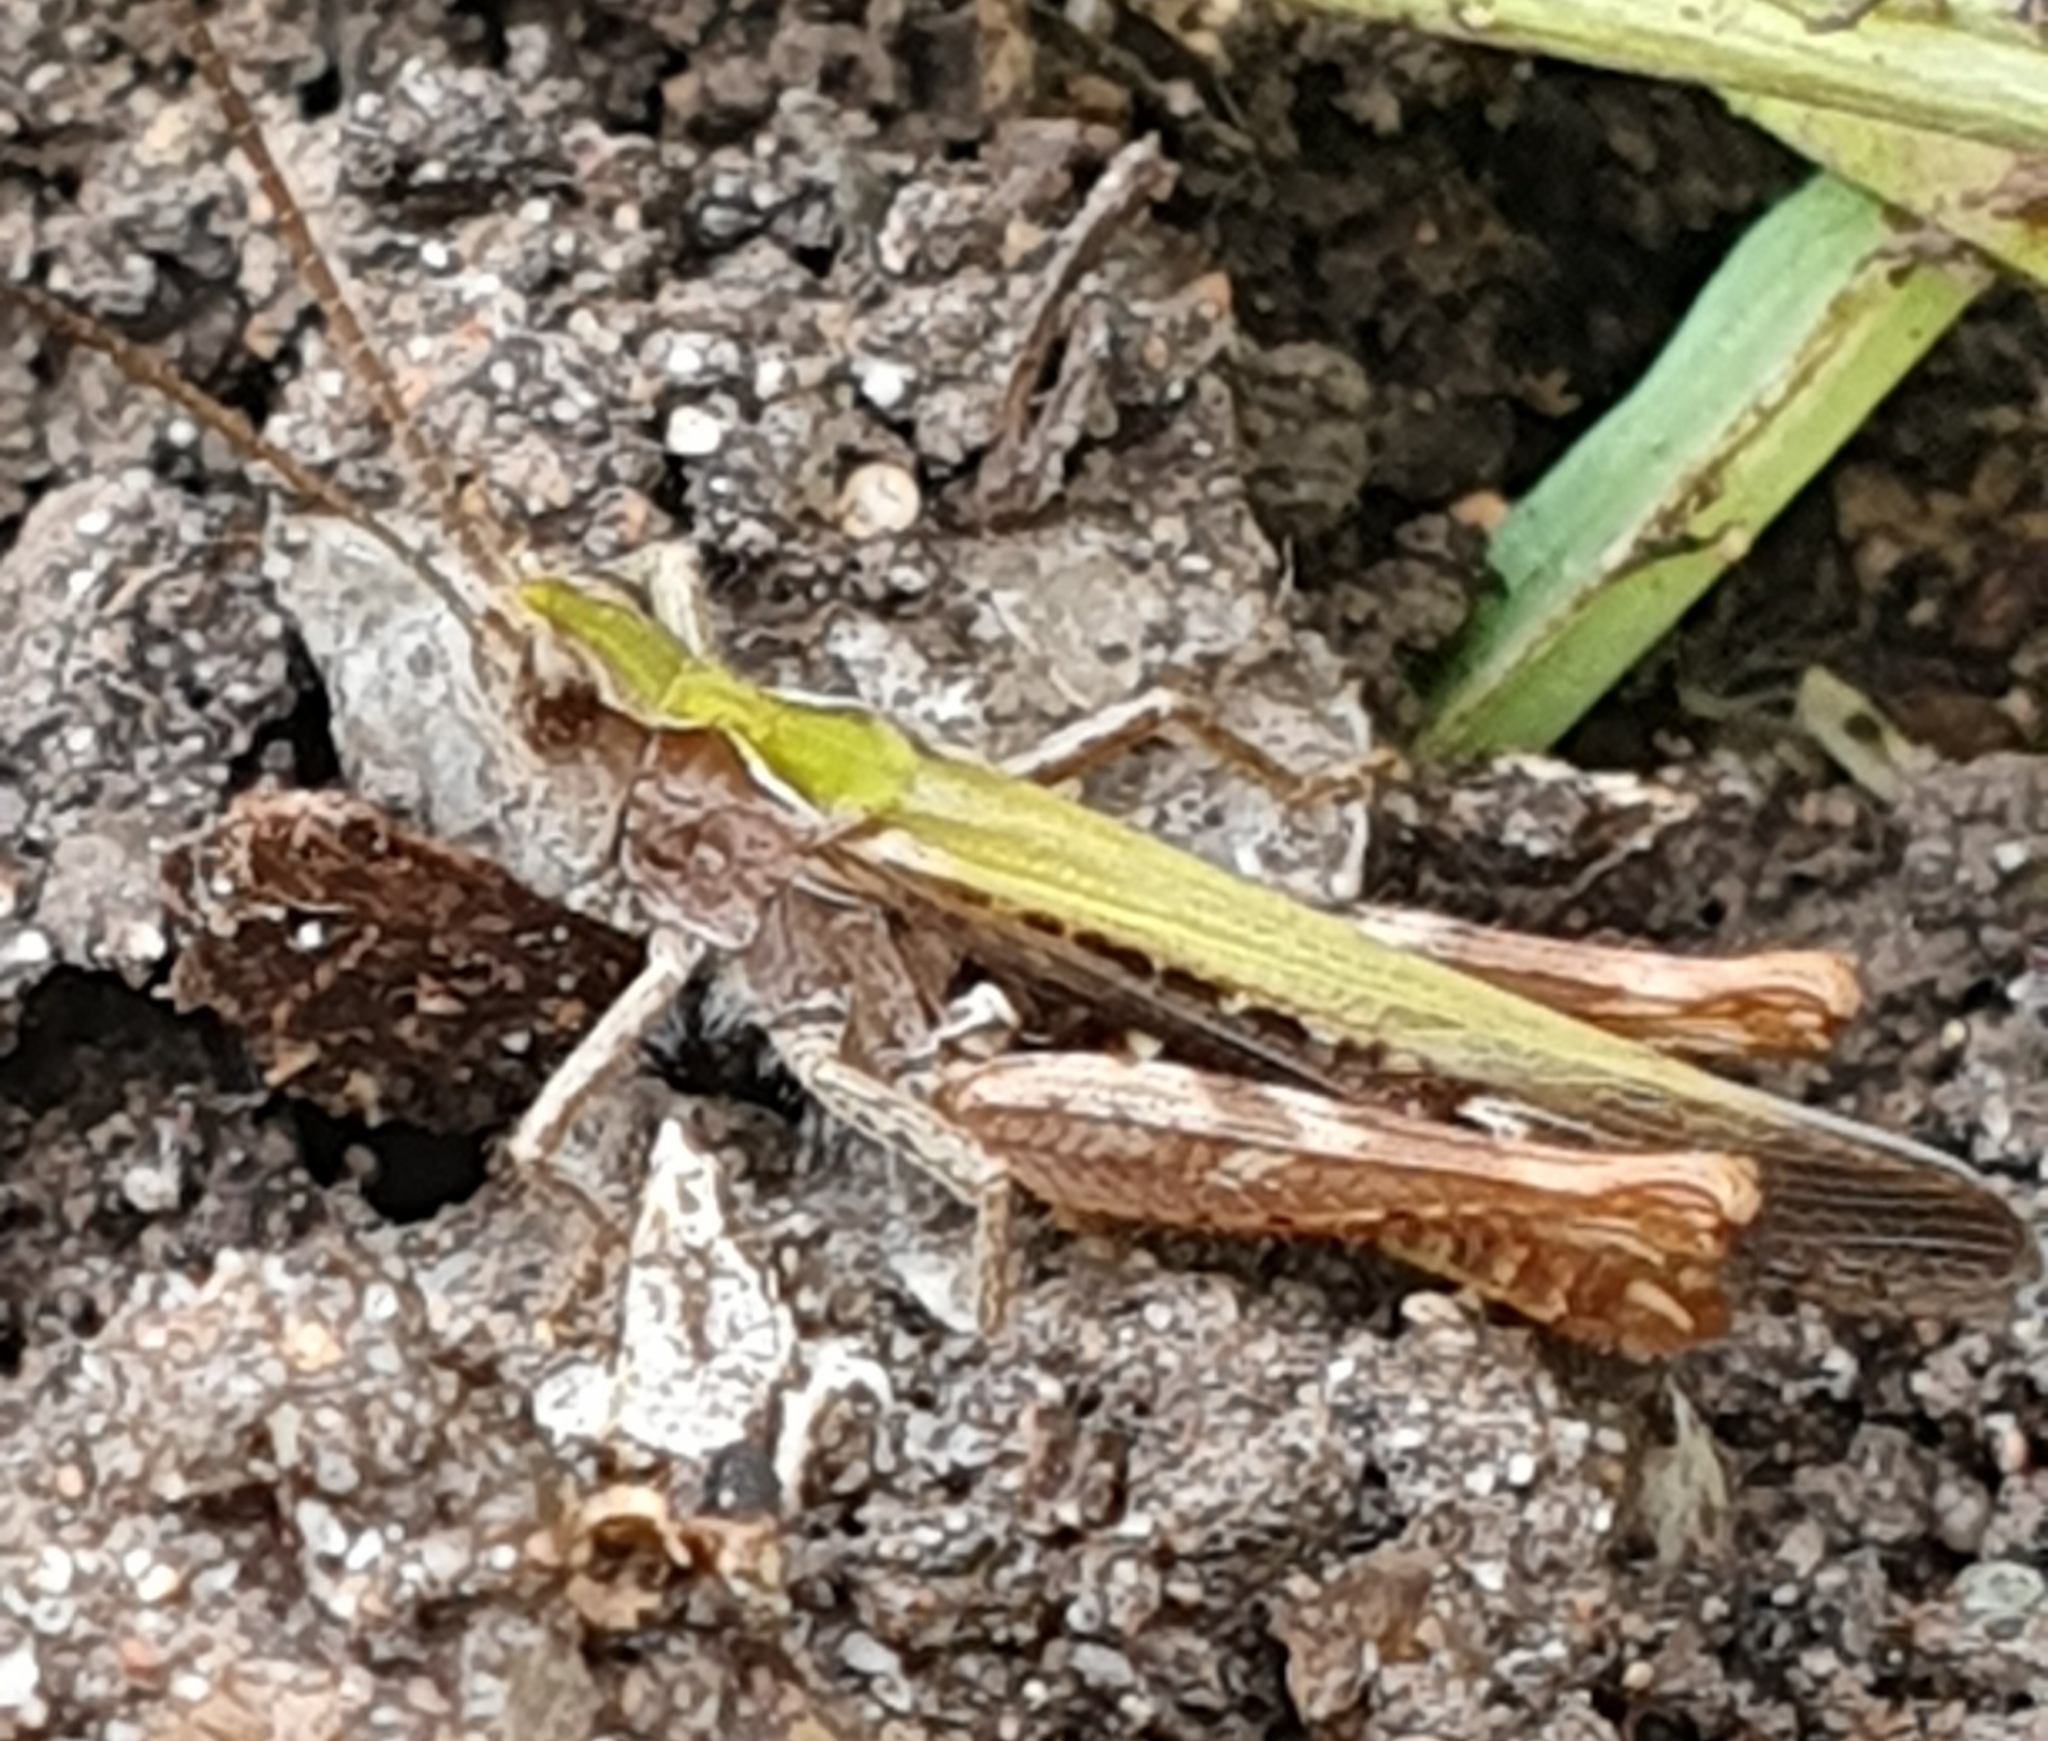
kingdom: Animalia
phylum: Arthropoda
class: Insecta
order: Orthoptera
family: Acrididae
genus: Chorthippus
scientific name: Chorthippus brunneus
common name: Field grasshopper
